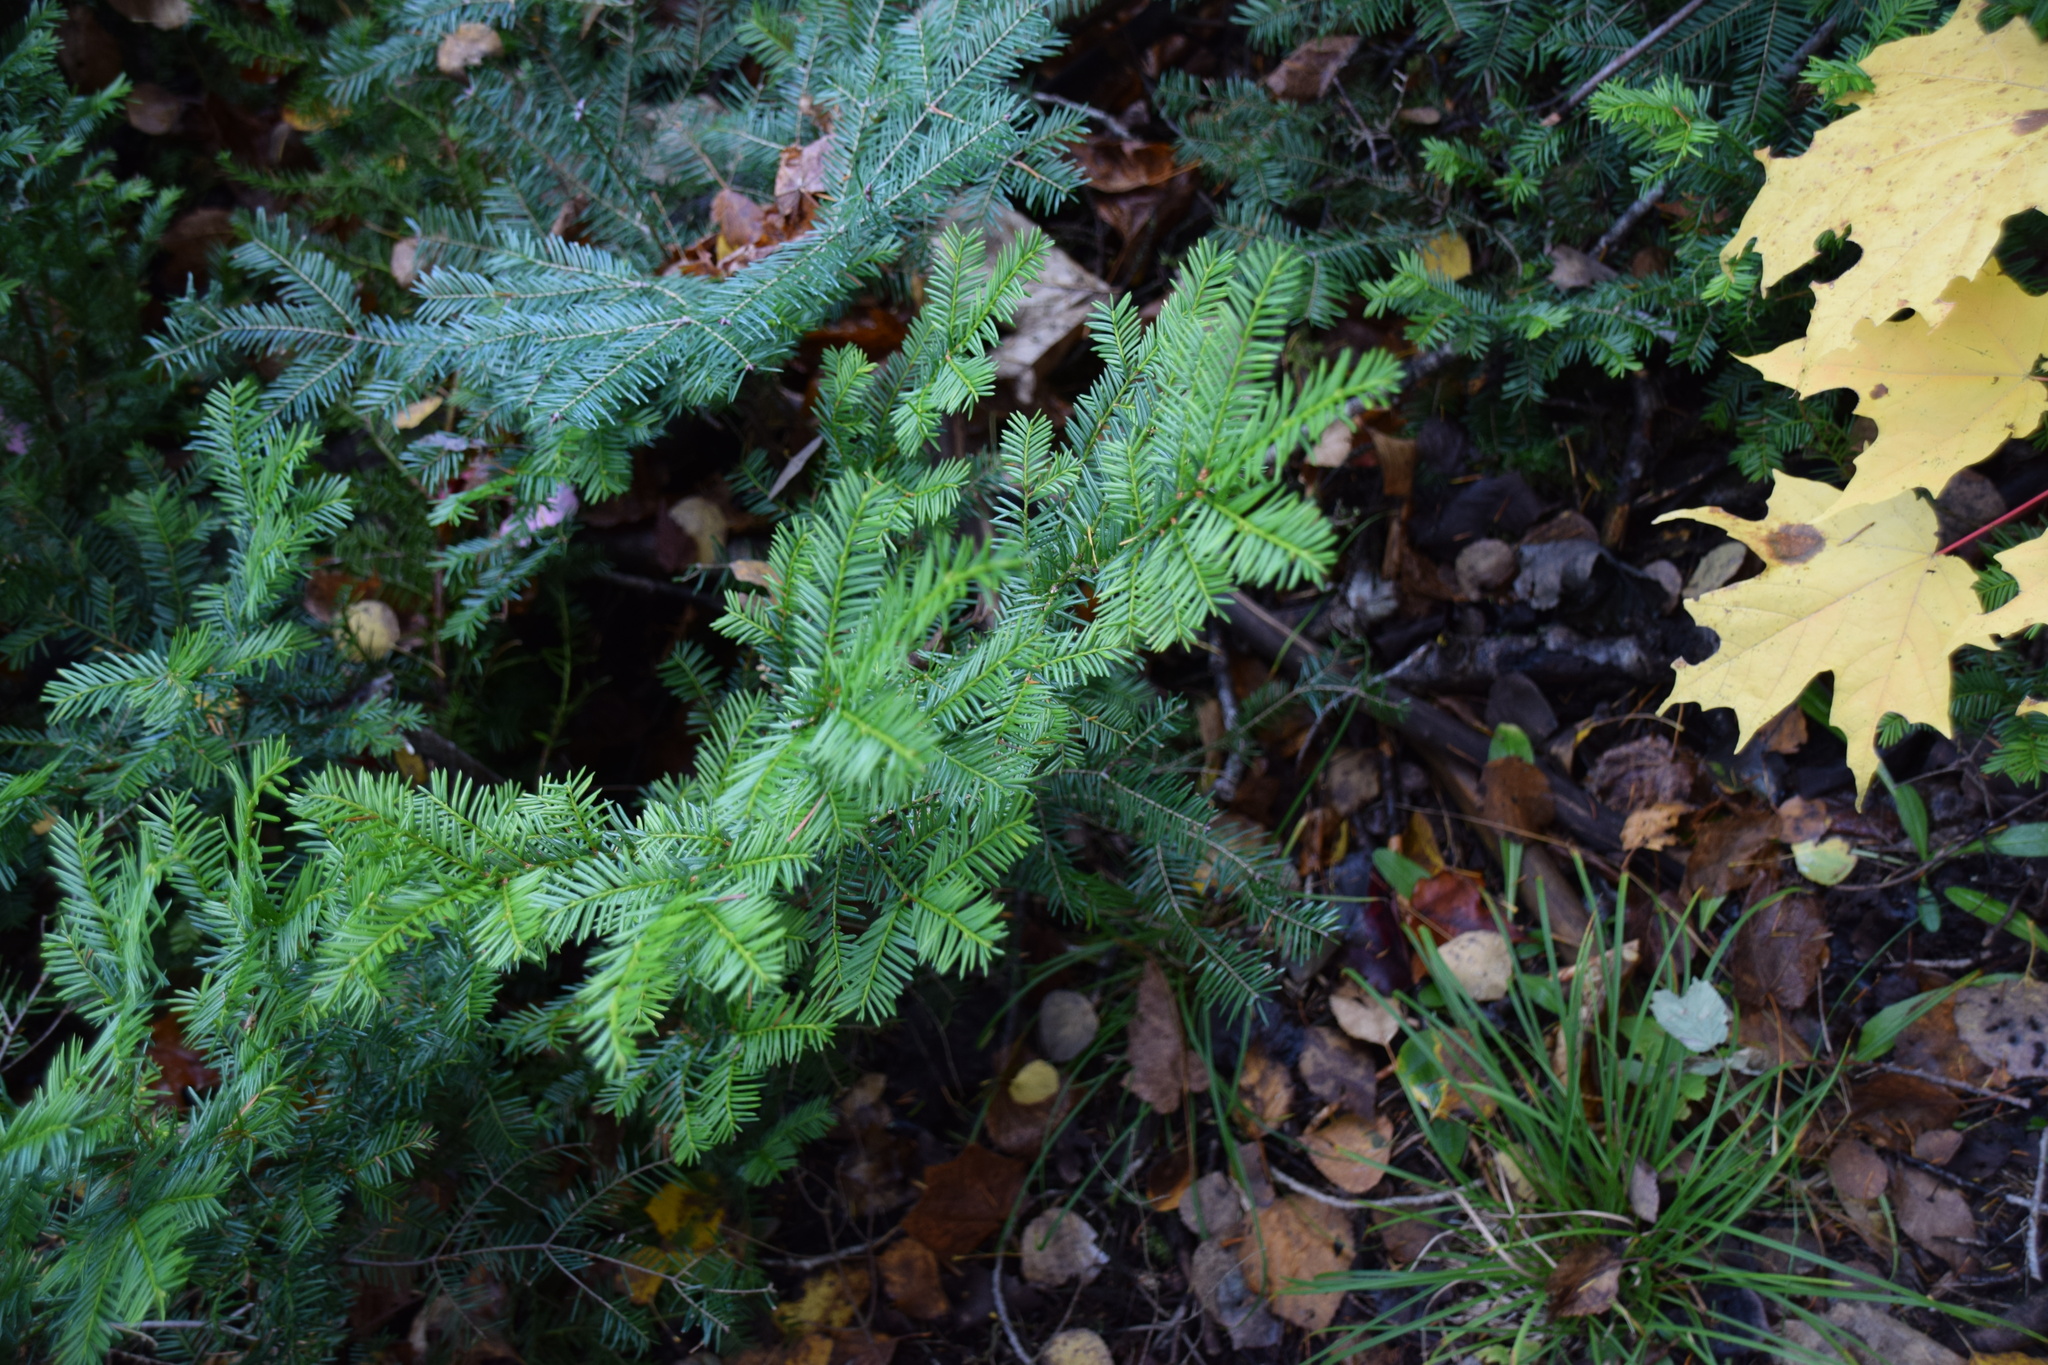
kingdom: Plantae
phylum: Tracheophyta
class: Pinopsida
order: Pinales
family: Taxaceae
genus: Taxus
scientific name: Taxus canadensis
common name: American yew
